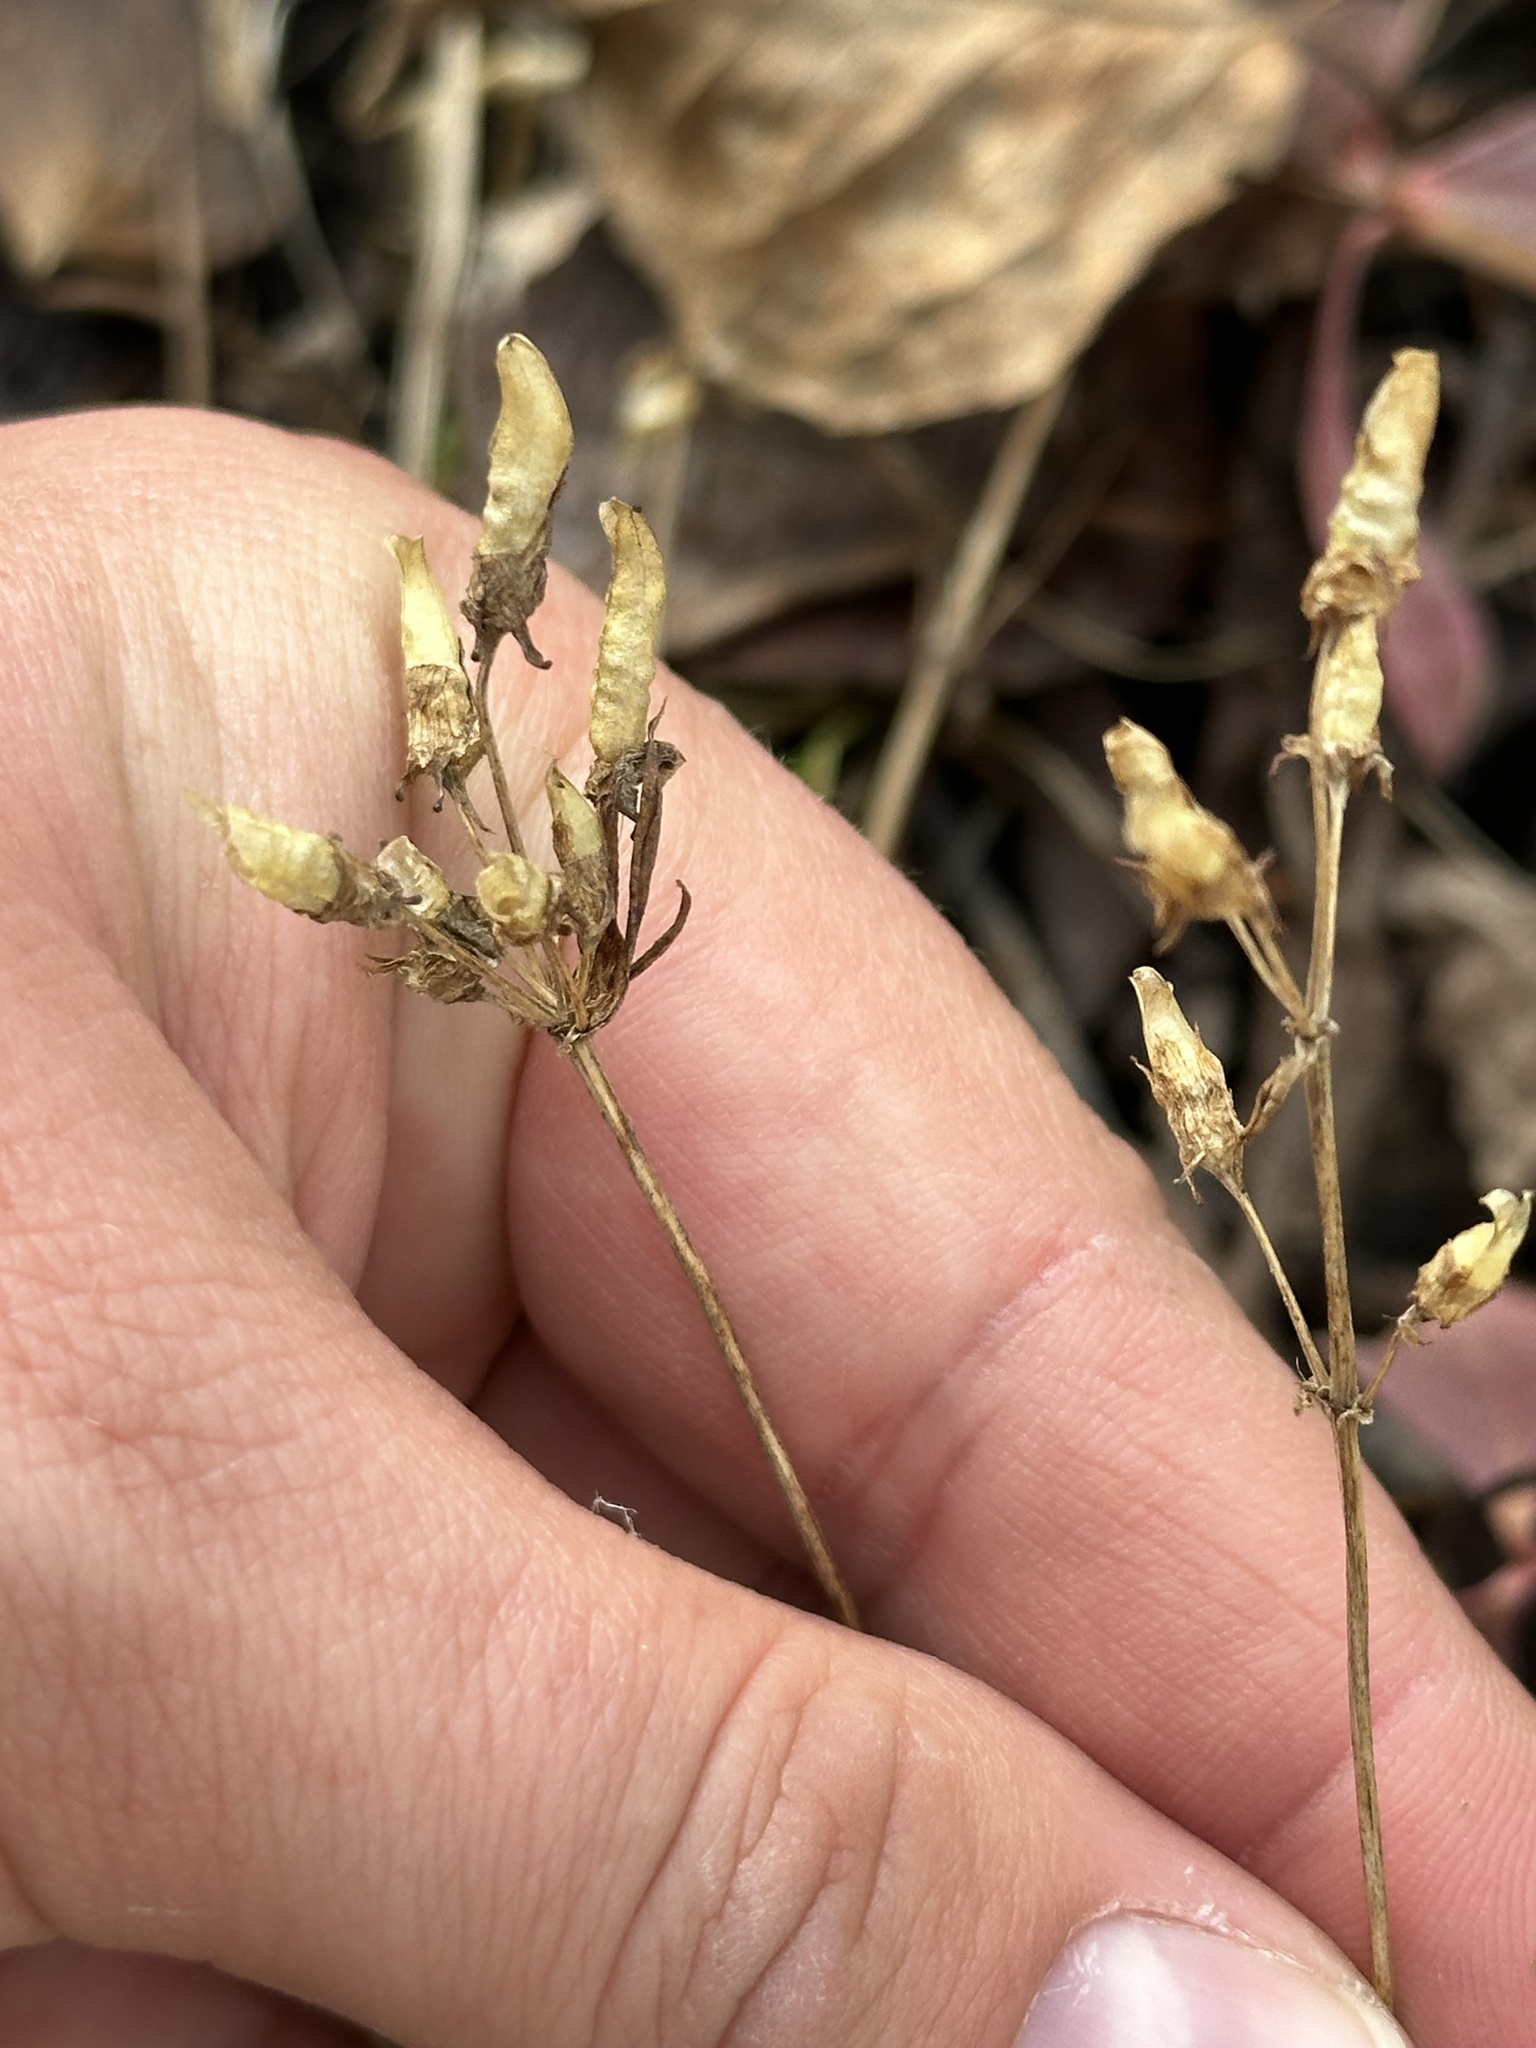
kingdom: Plantae
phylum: Tracheophyta
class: Magnoliopsida
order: Gentianales
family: Gentianaceae
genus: Halenia
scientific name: Halenia deflexa
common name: American spurred gentian
